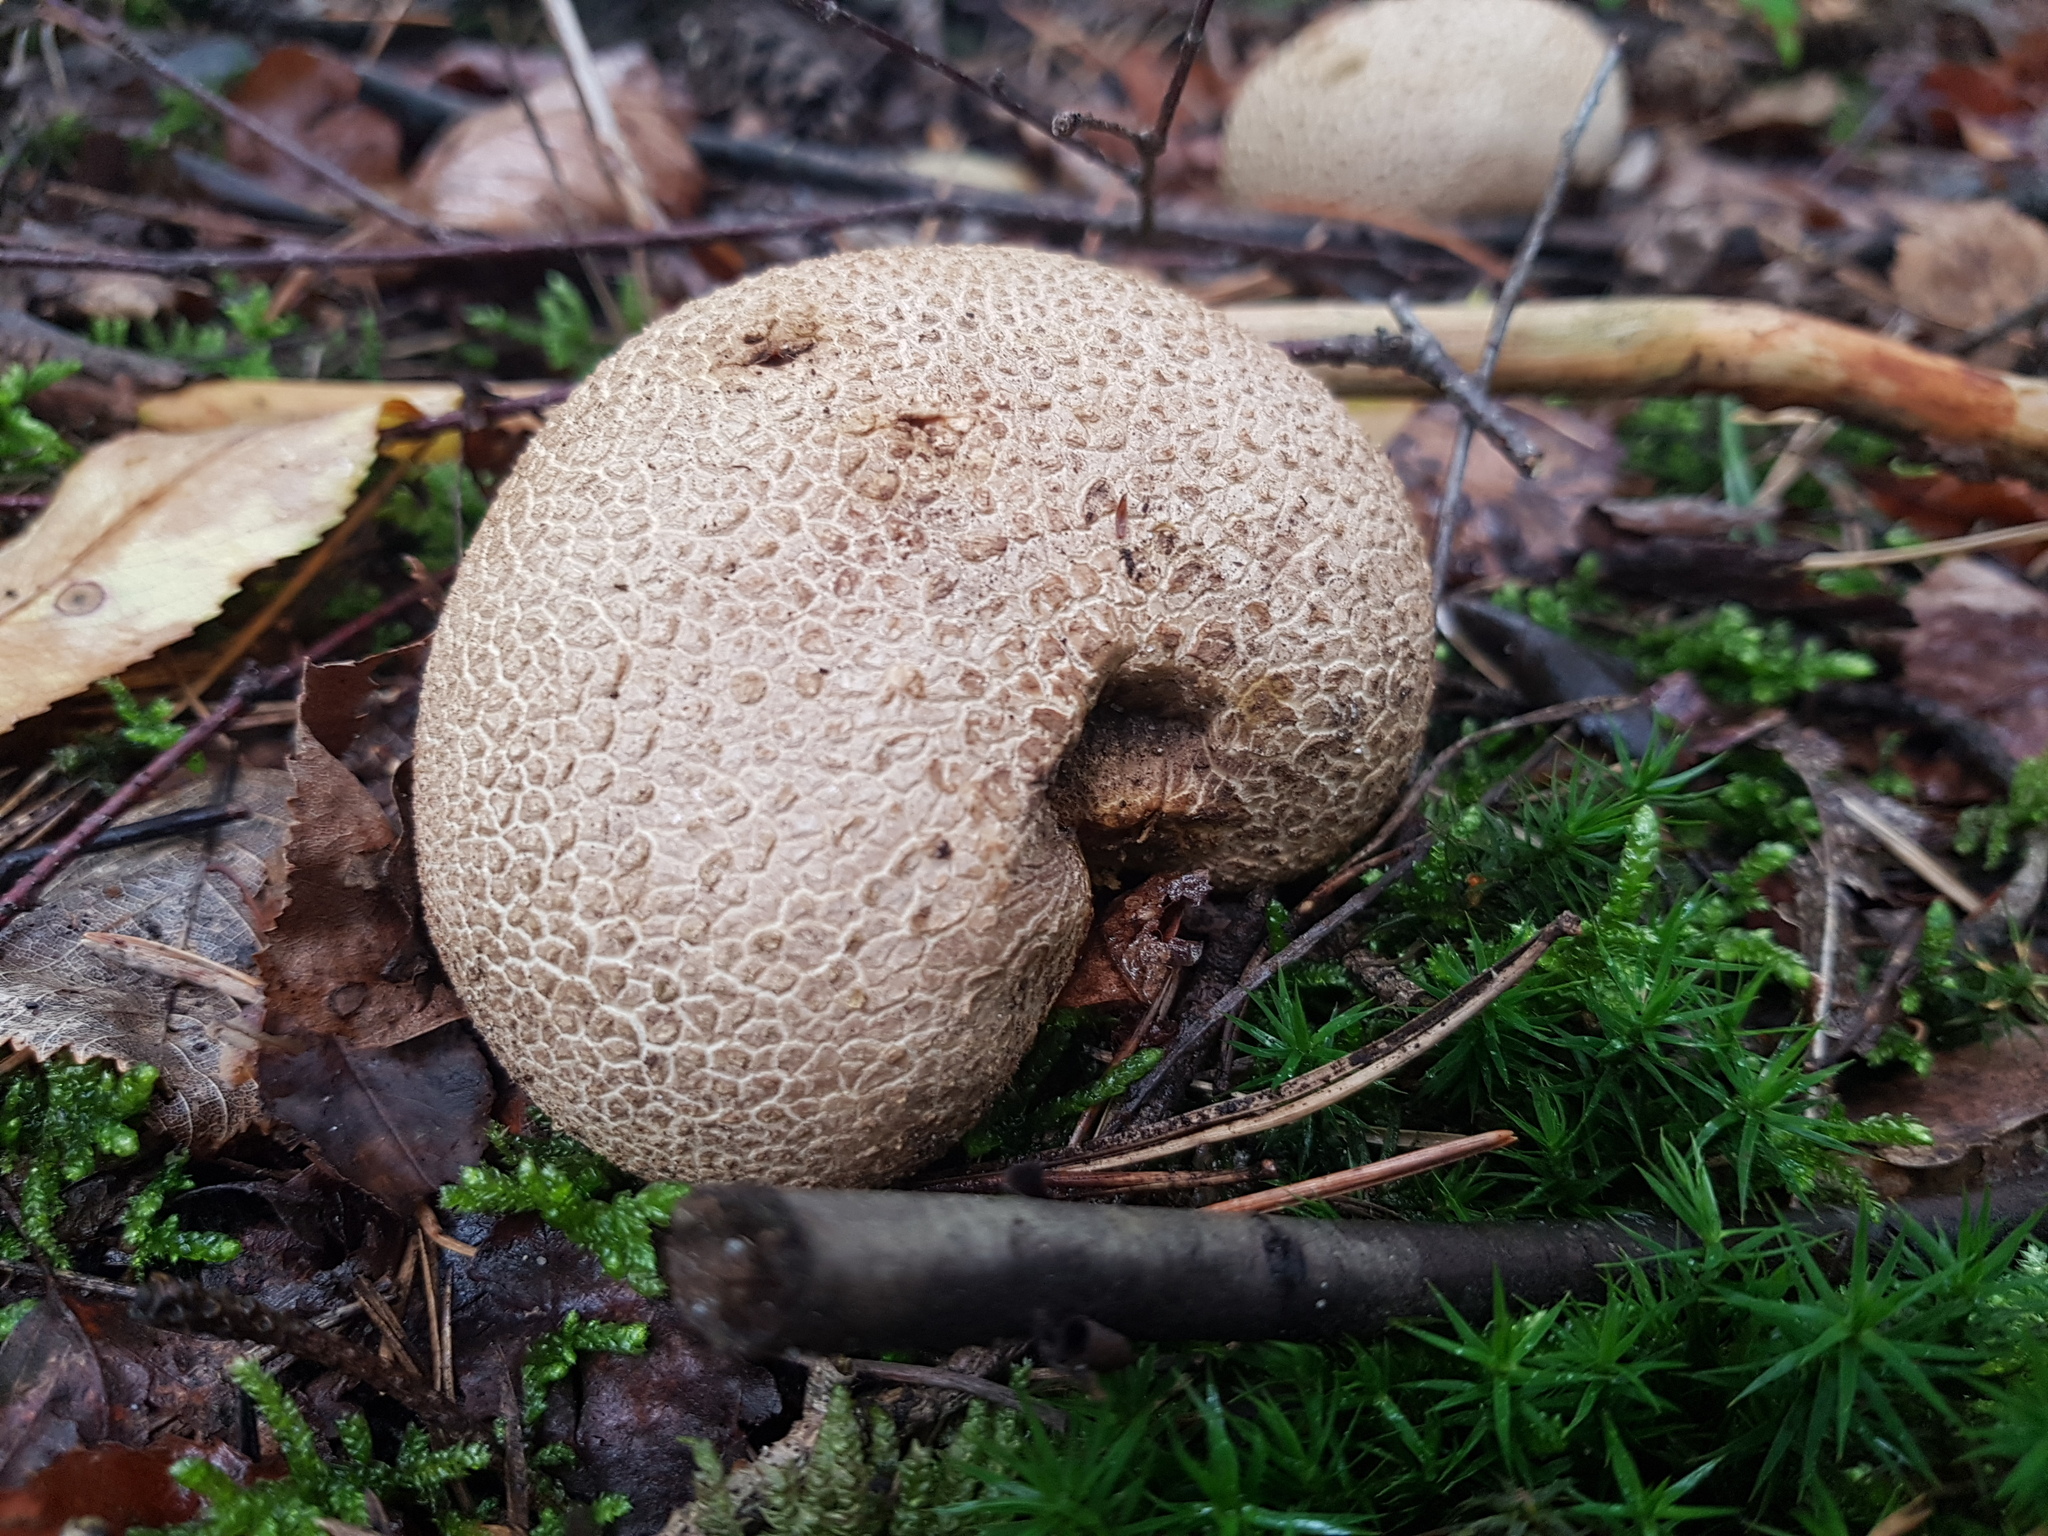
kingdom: Fungi
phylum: Basidiomycota
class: Agaricomycetes
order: Boletales
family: Sclerodermataceae
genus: Scleroderma
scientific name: Scleroderma citrinum
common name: Common earthball
